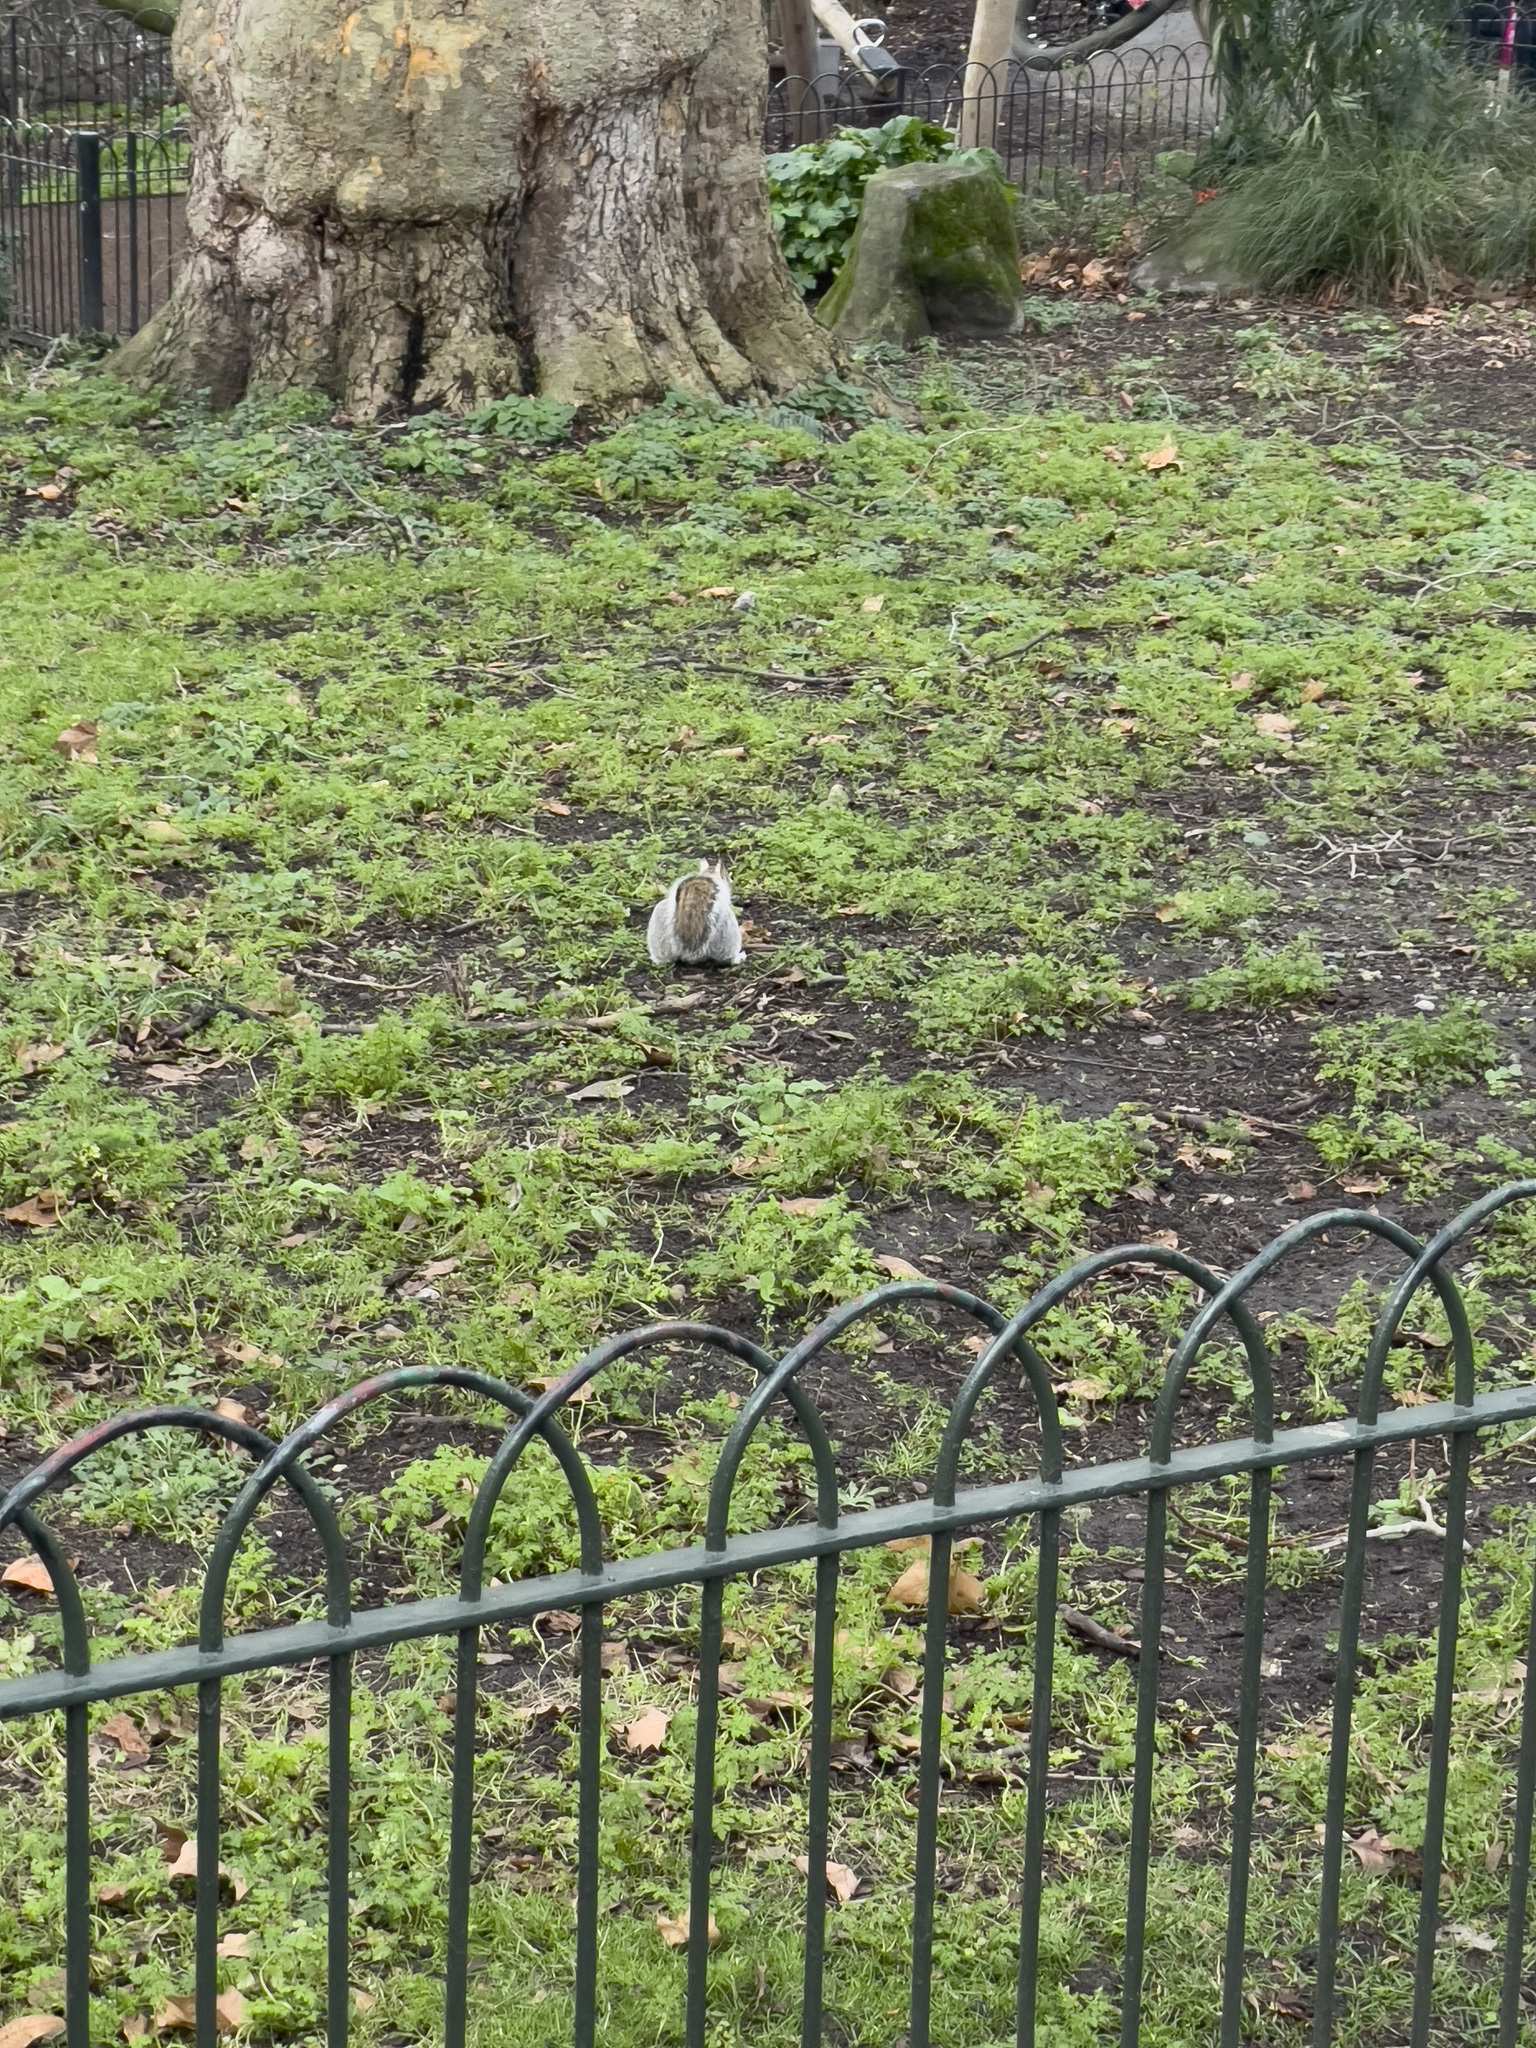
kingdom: Animalia
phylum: Chordata
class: Mammalia
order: Rodentia
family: Sciuridae
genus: Sciurus
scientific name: Sciurus carolinensis
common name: Eastern gray squirrel
